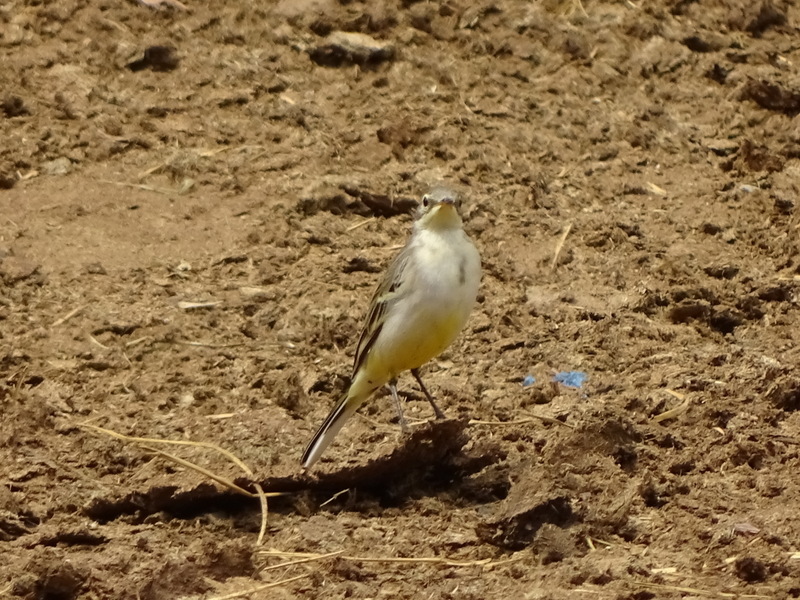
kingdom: Animalia
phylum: Chordata
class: Aves
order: Passeriformes
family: Motacillidae
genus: Motacilla
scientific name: Motacilla flava
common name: Western yellow wagtail
